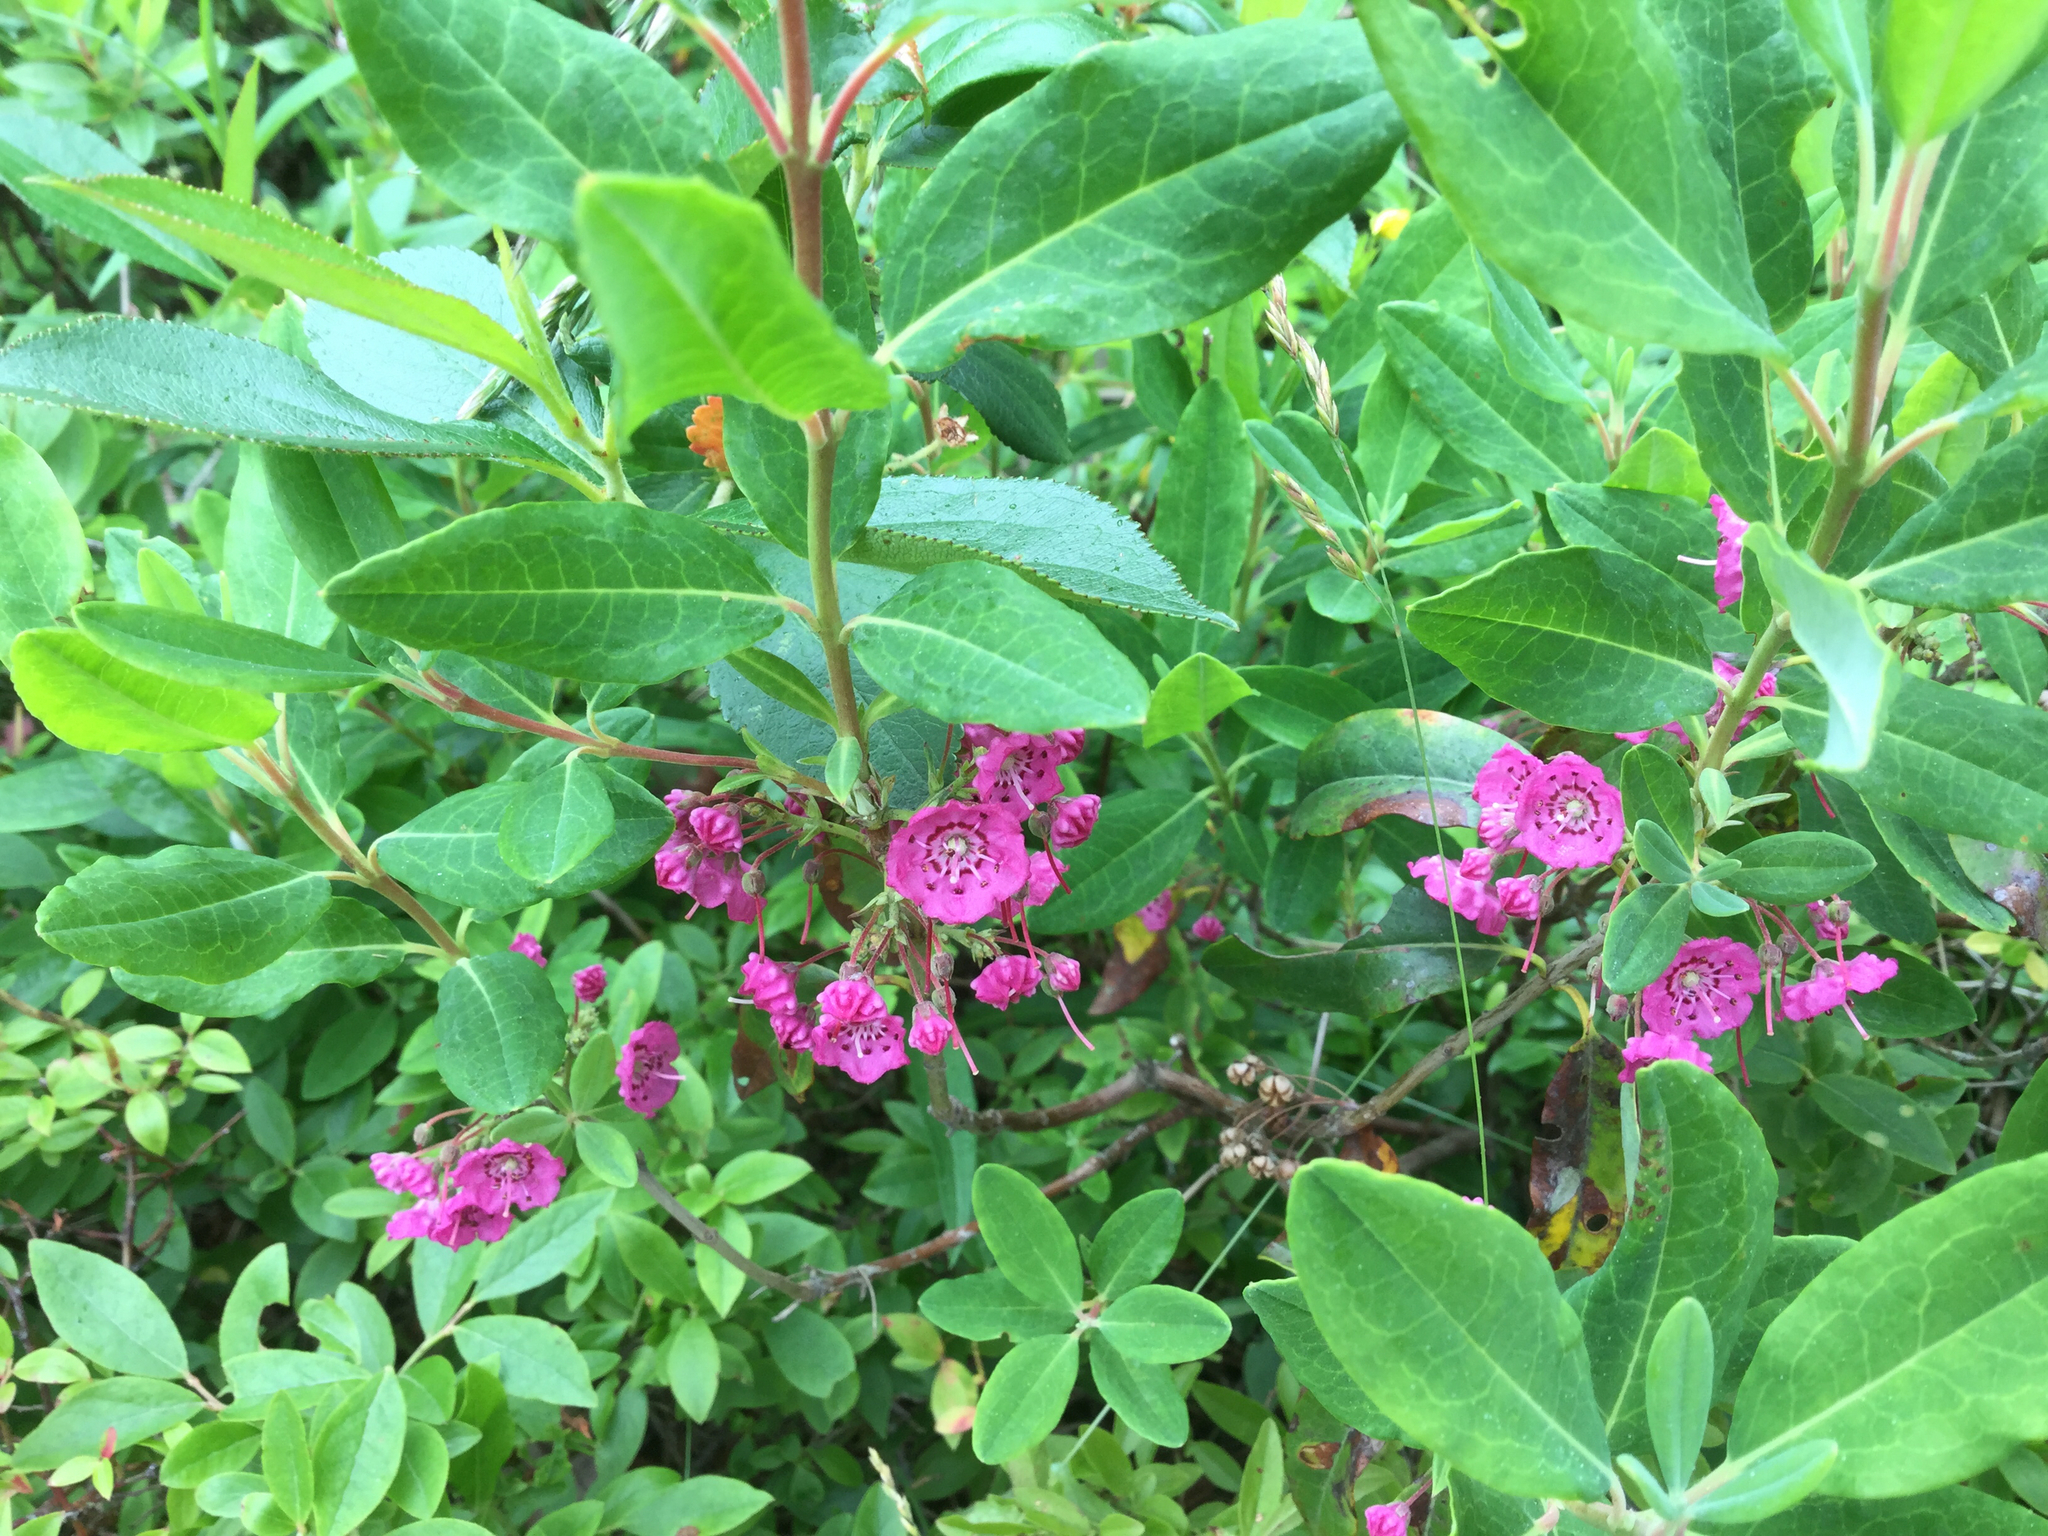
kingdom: Plantae
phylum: Tracheophyta
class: Magnoliopsida
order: Ericales
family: Ericaceae
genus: Kalmia
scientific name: Kalmia angustifolia
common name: Sheep-laurel
